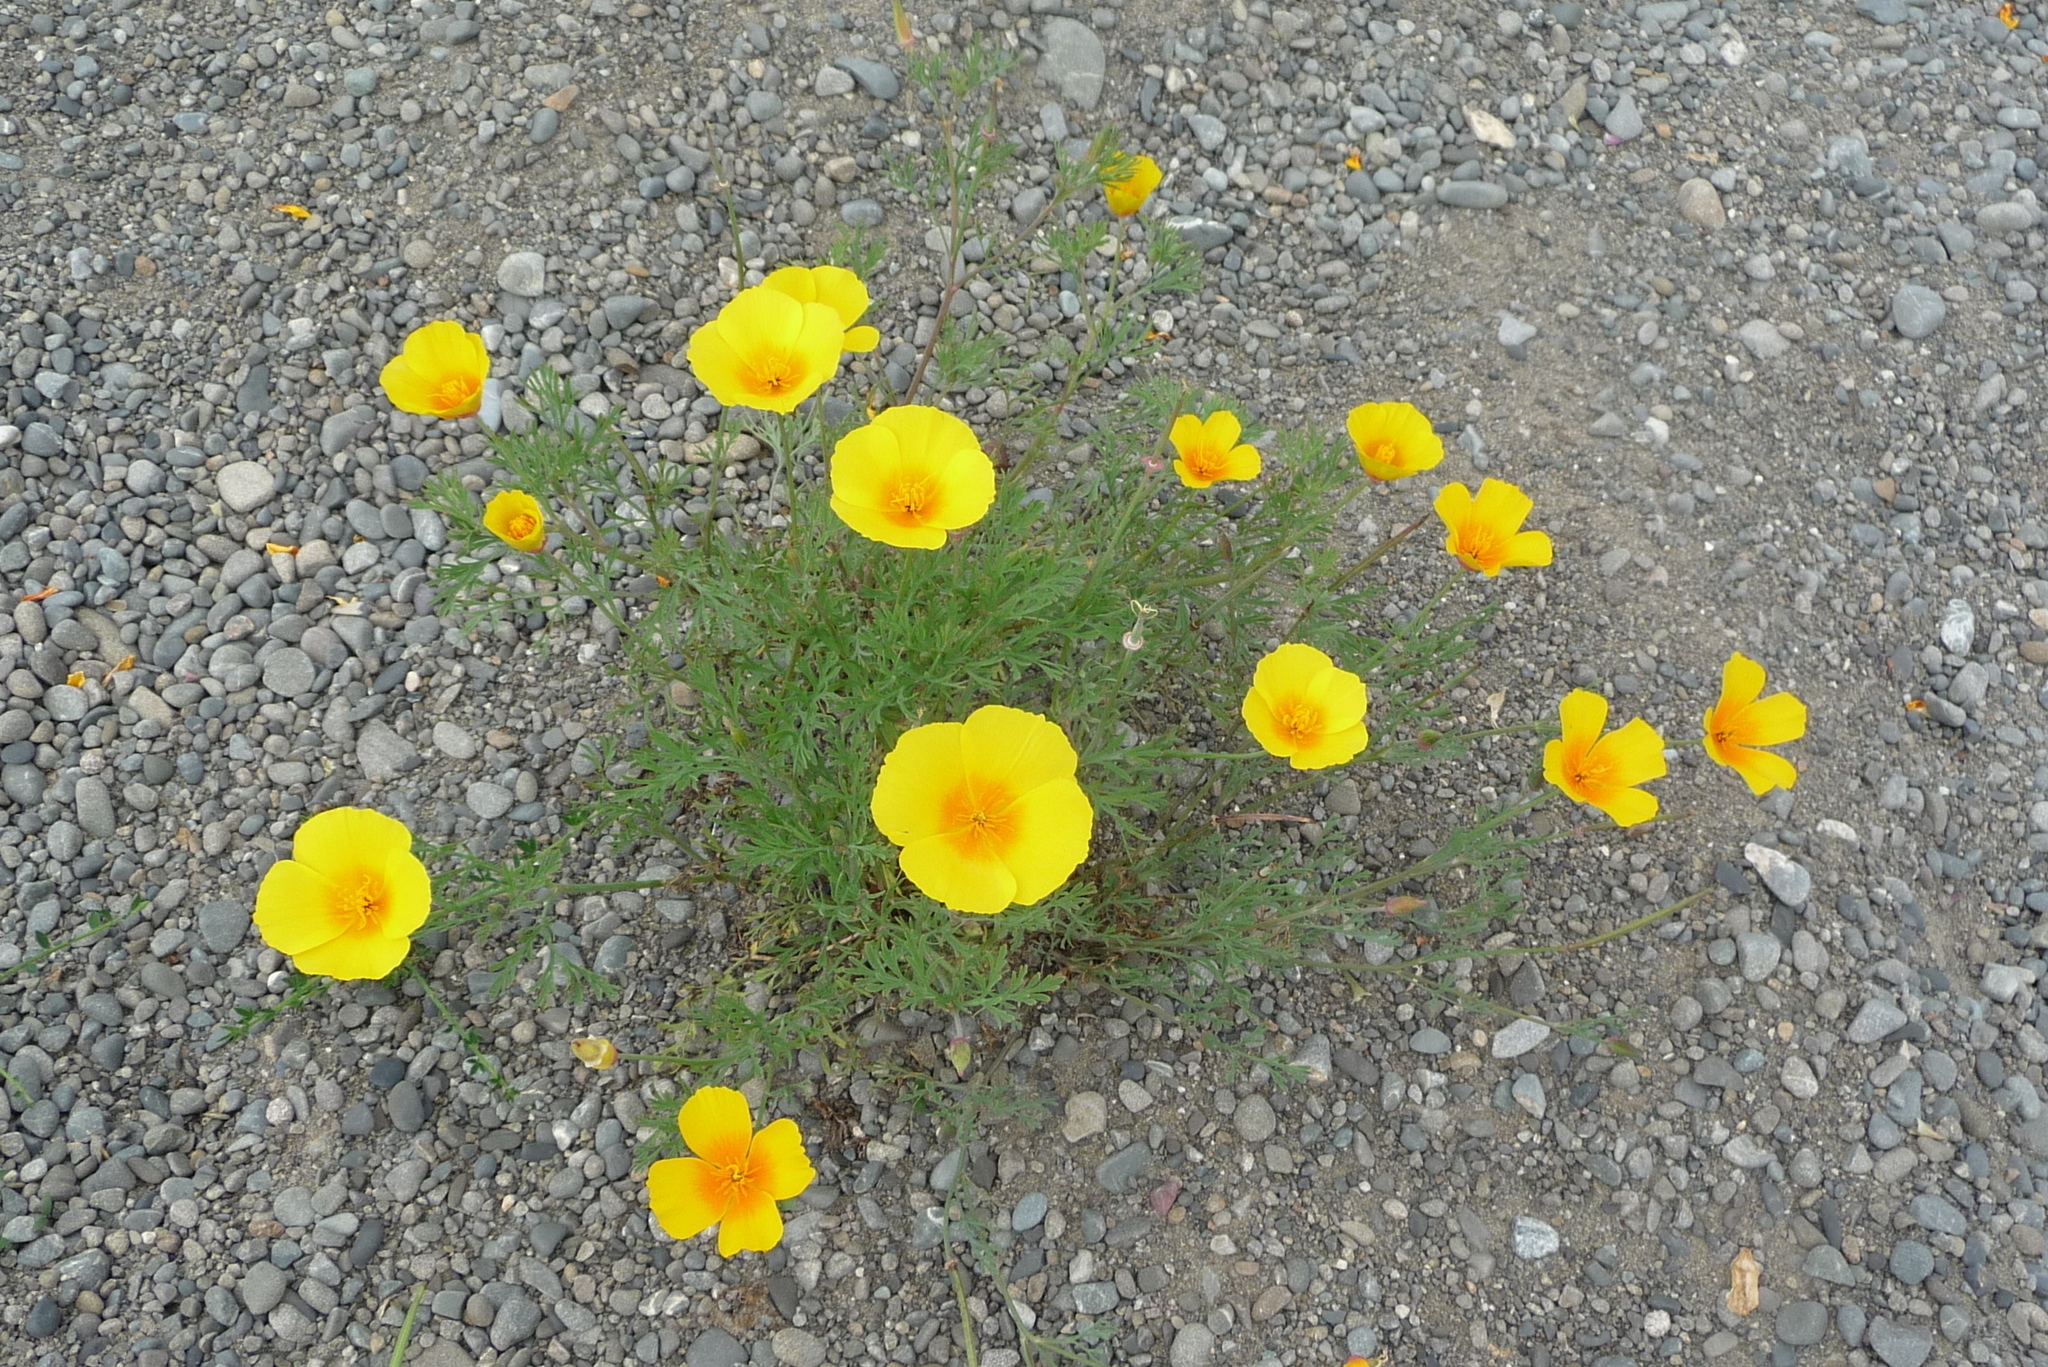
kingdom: Plantae
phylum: Tracheophyta
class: Magnoliopsida
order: Ranunculales
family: Papaveraceae
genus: Eschscholzia
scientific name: Eschscholzia californica
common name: California poppy
